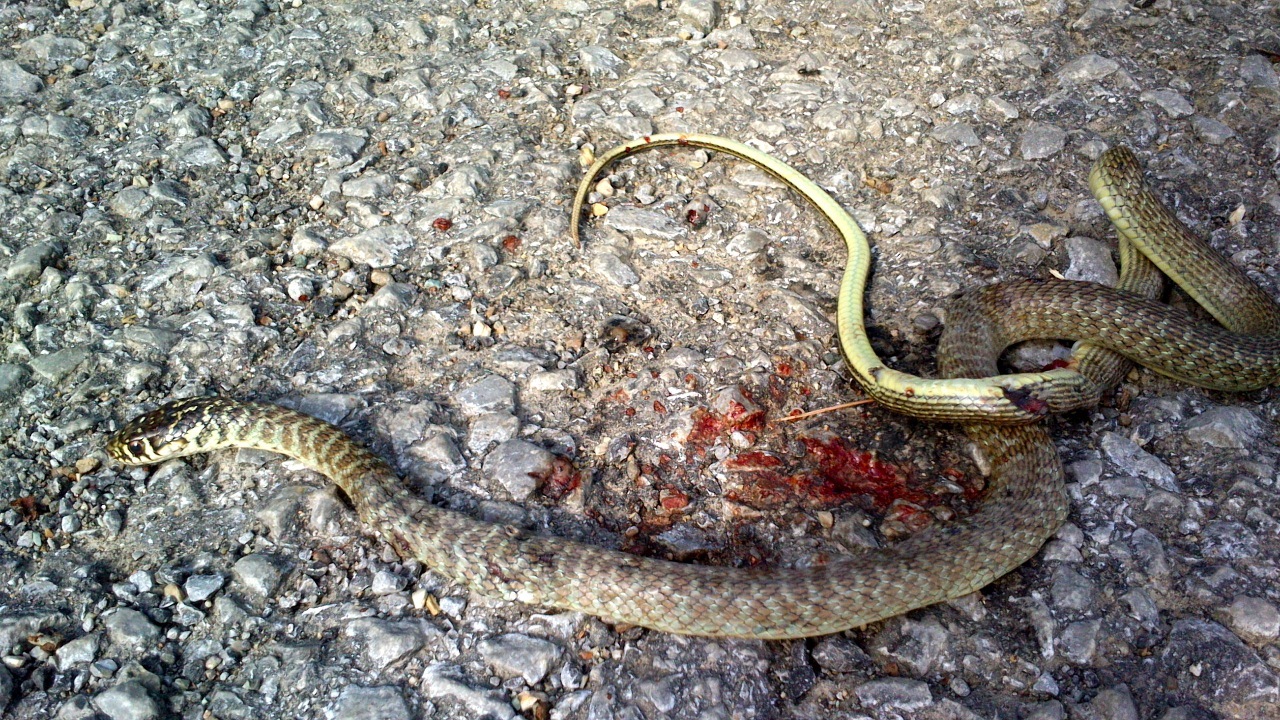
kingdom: Animalia
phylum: Chordata
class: Squamata
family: Colubridae
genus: Hierophis
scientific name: Hierophis viridiflavus
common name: Green whip snake
